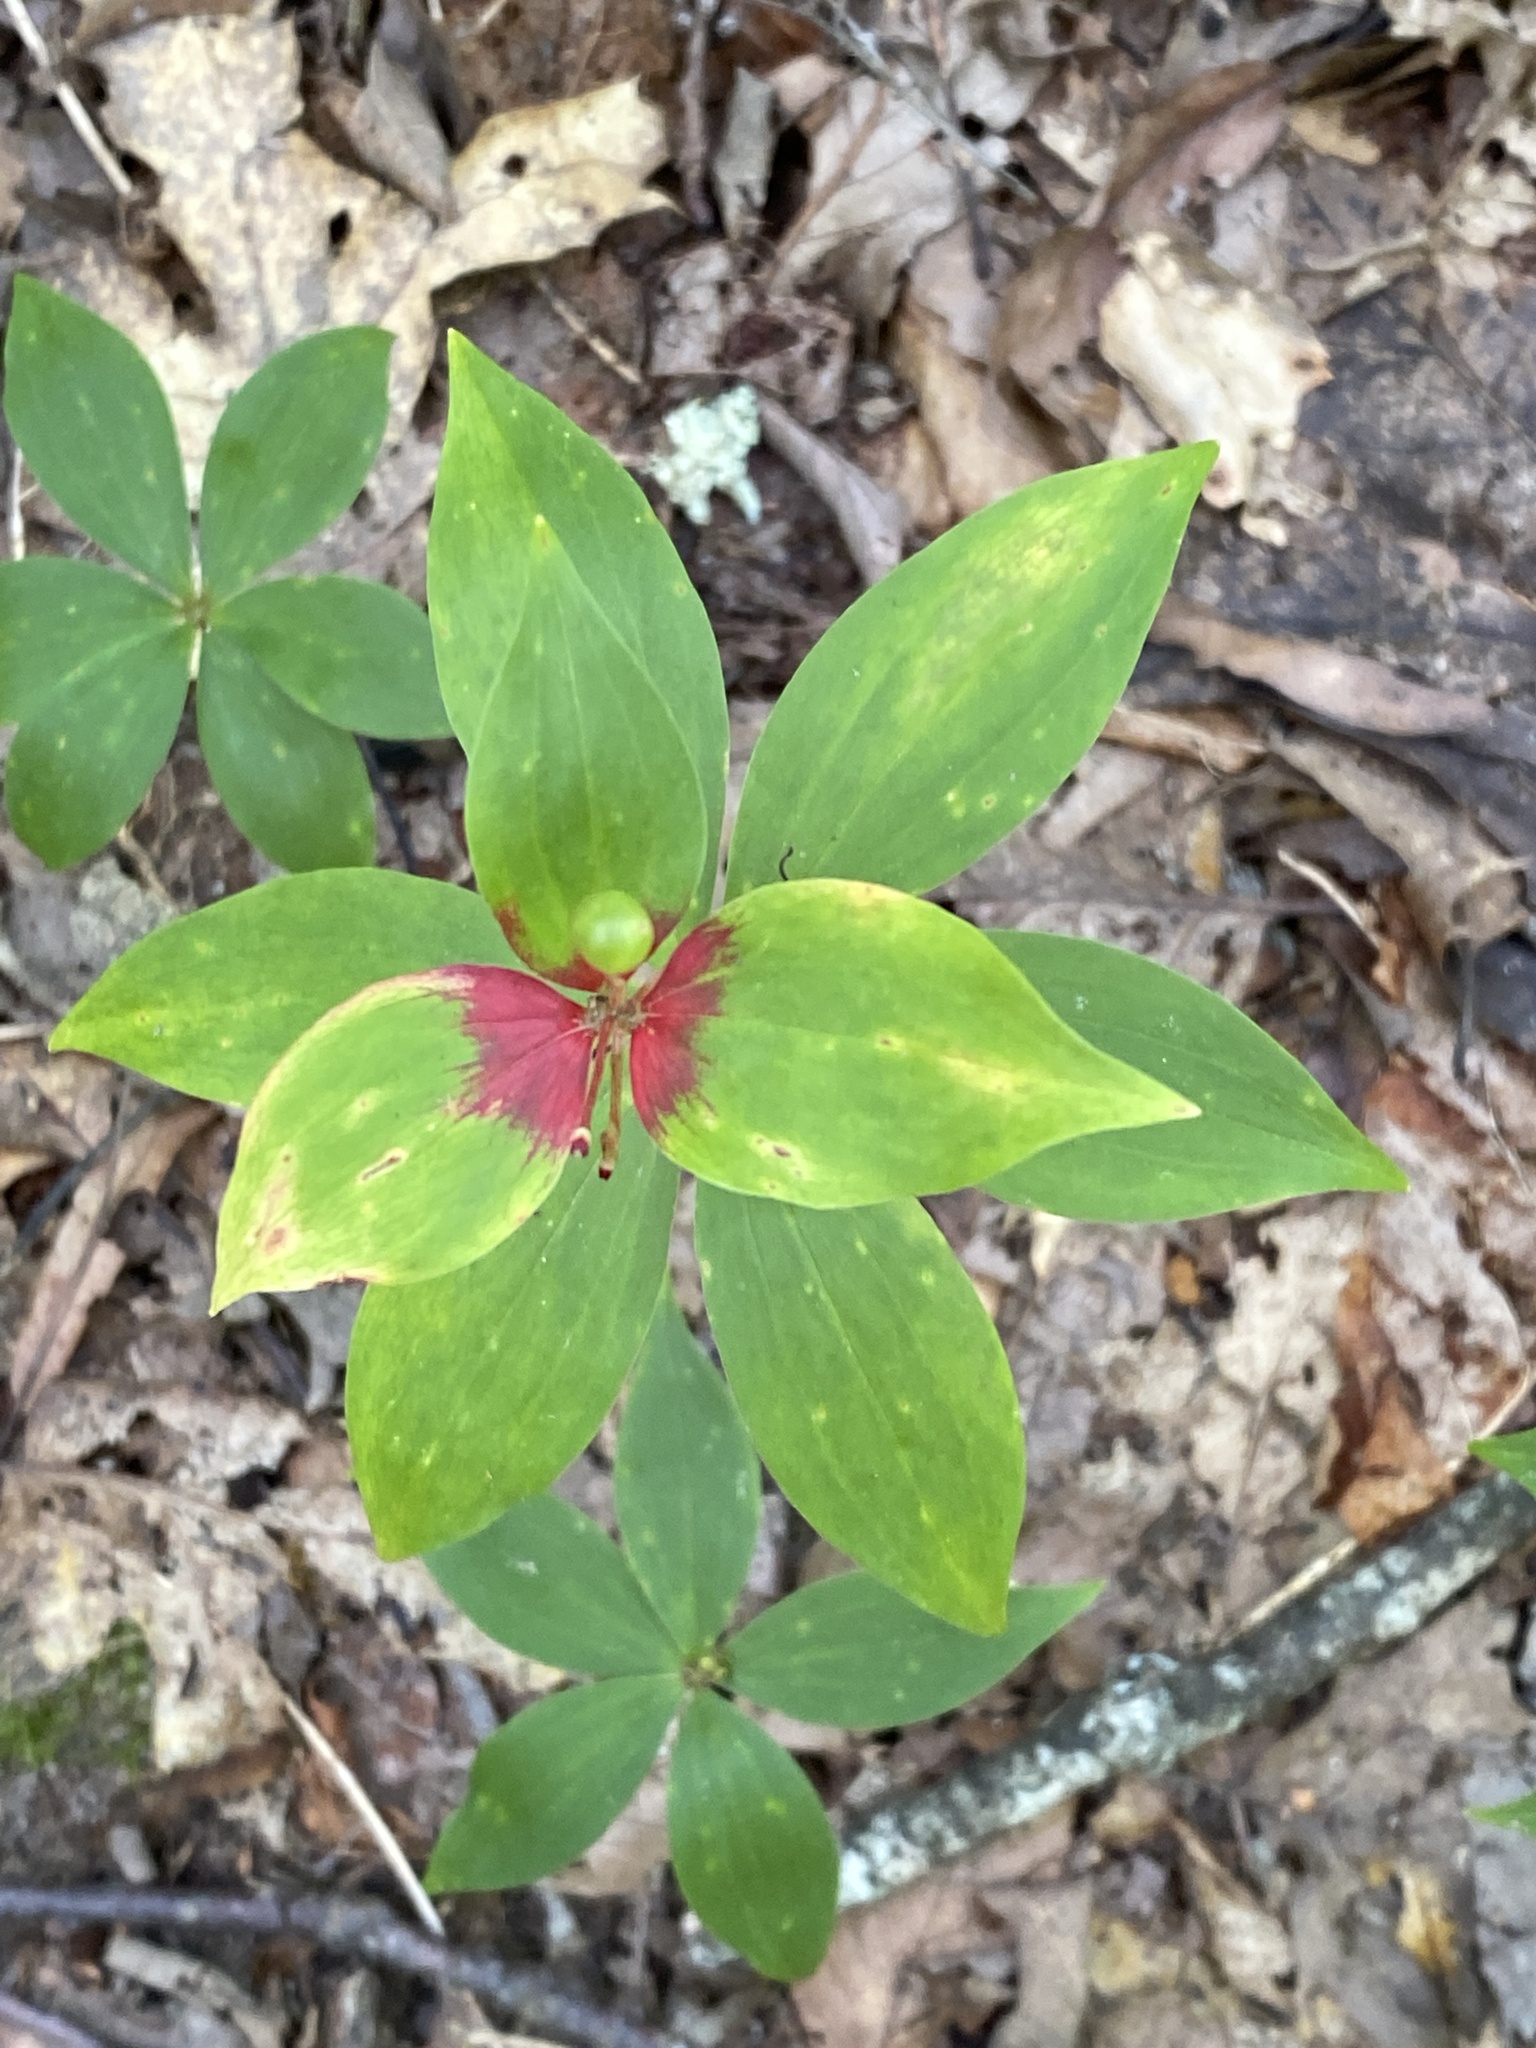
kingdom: Plantae
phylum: Tracheophyta
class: Liliopsida
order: Liliales
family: Liliaceae
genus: Medeola
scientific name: Medeola virginiana
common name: Indian cucumber-root
